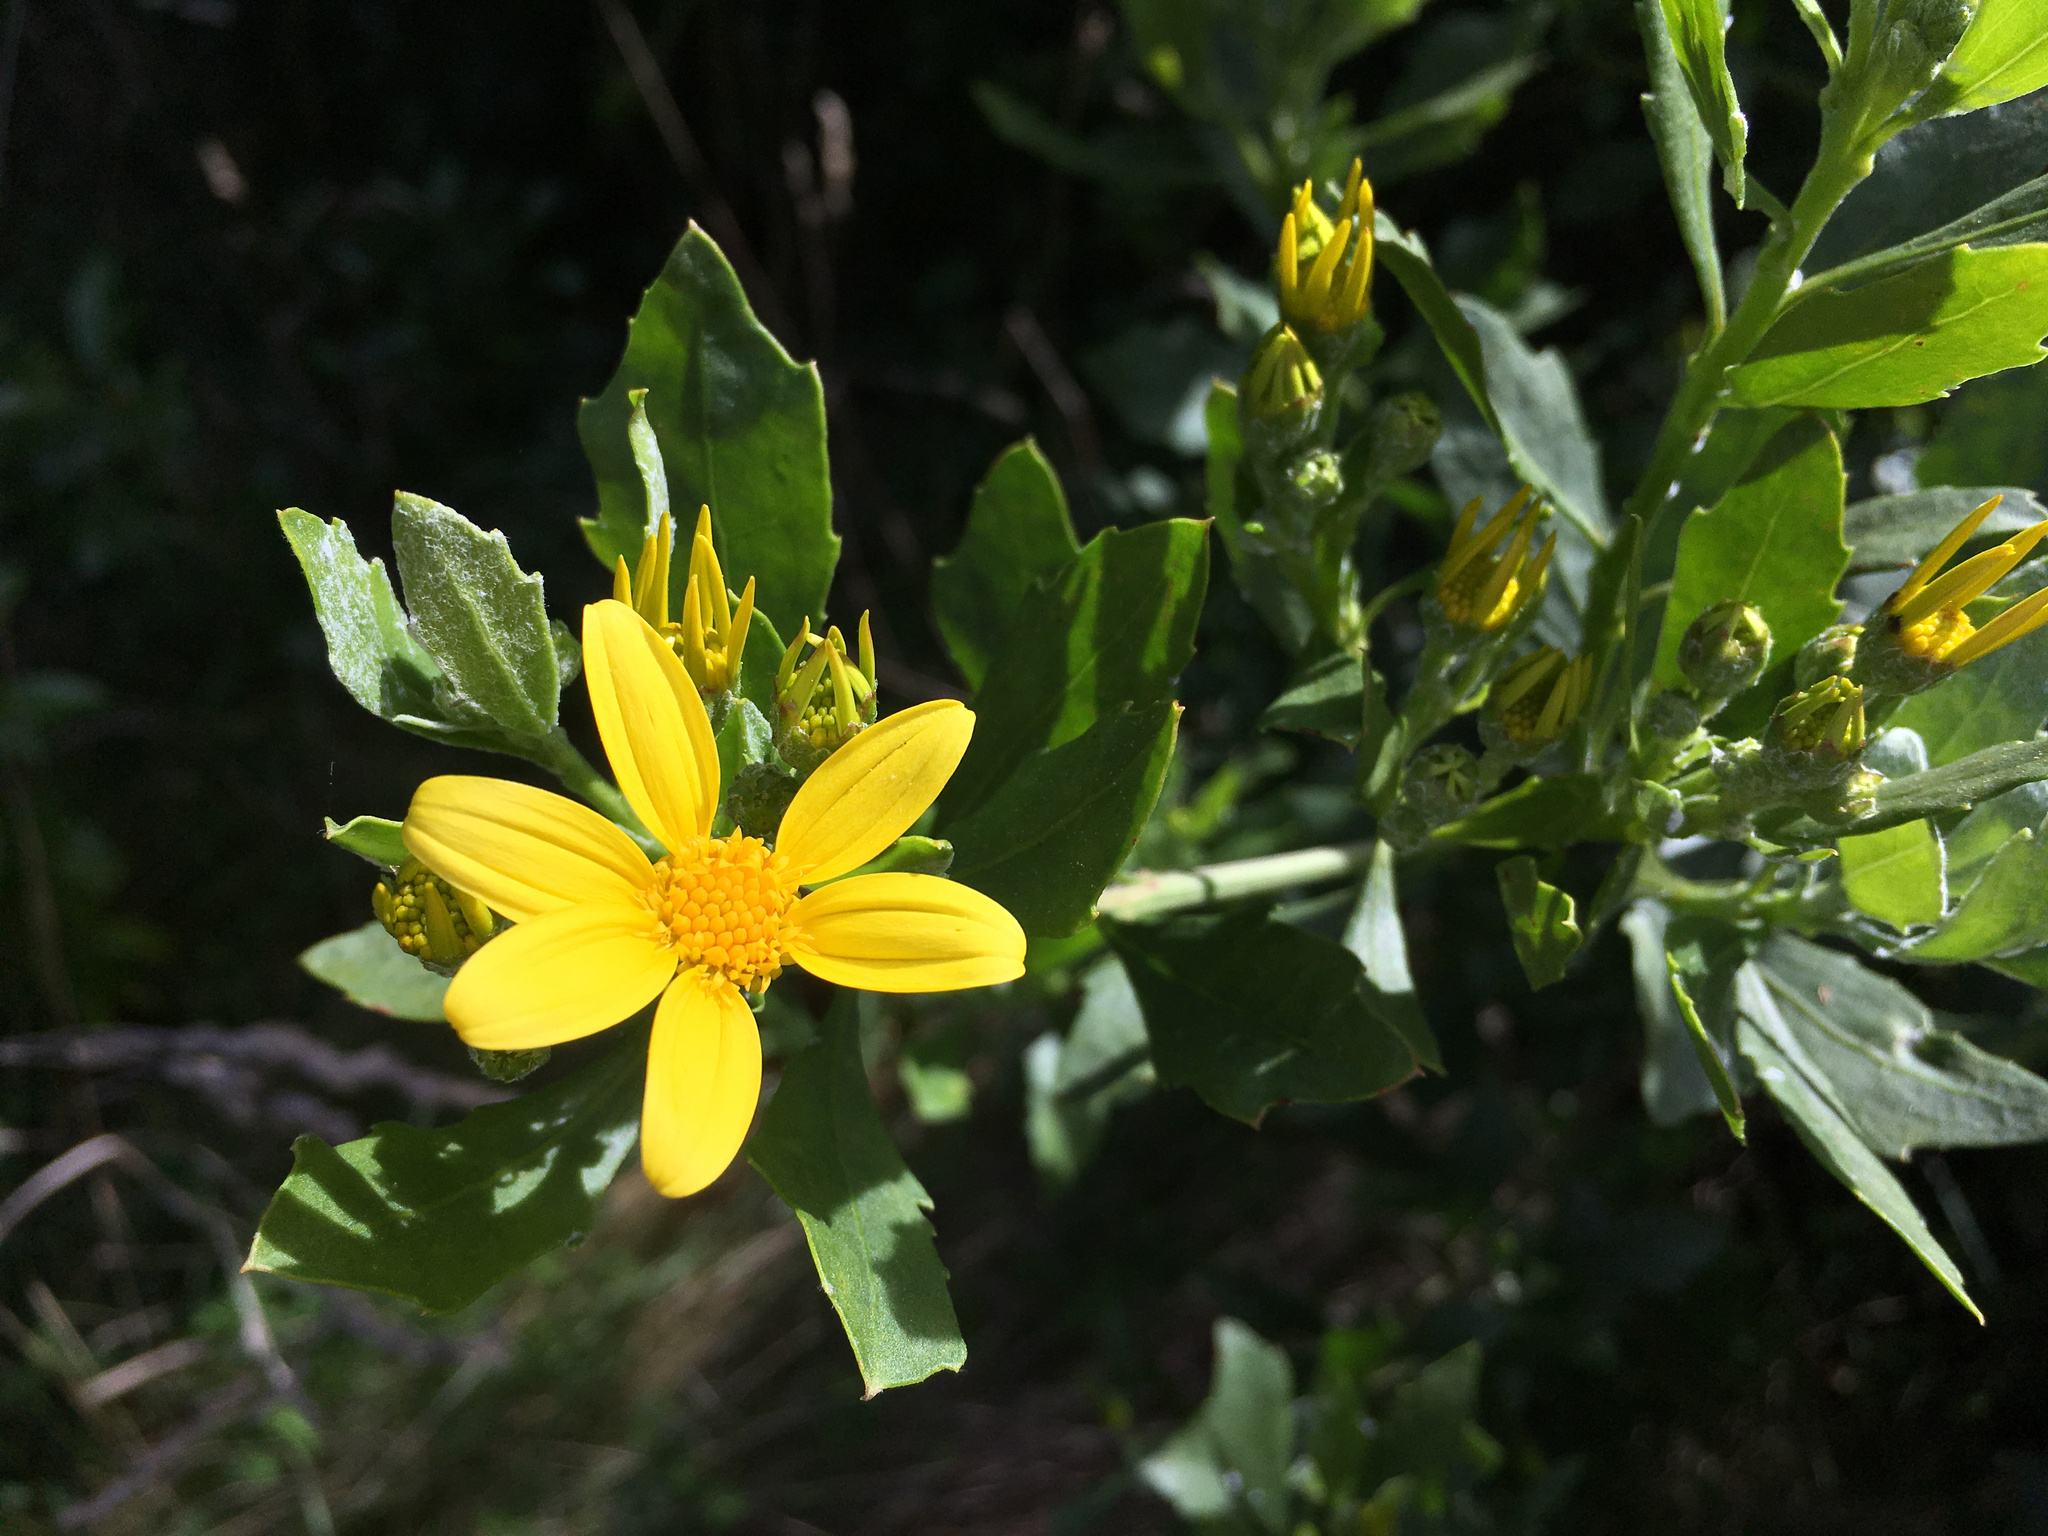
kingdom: Plantae
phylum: Tracheophyta
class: Magnoliopsida
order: Asterales
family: Asteraceae
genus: Osteospermum
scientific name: Osteospermum moniliferum
